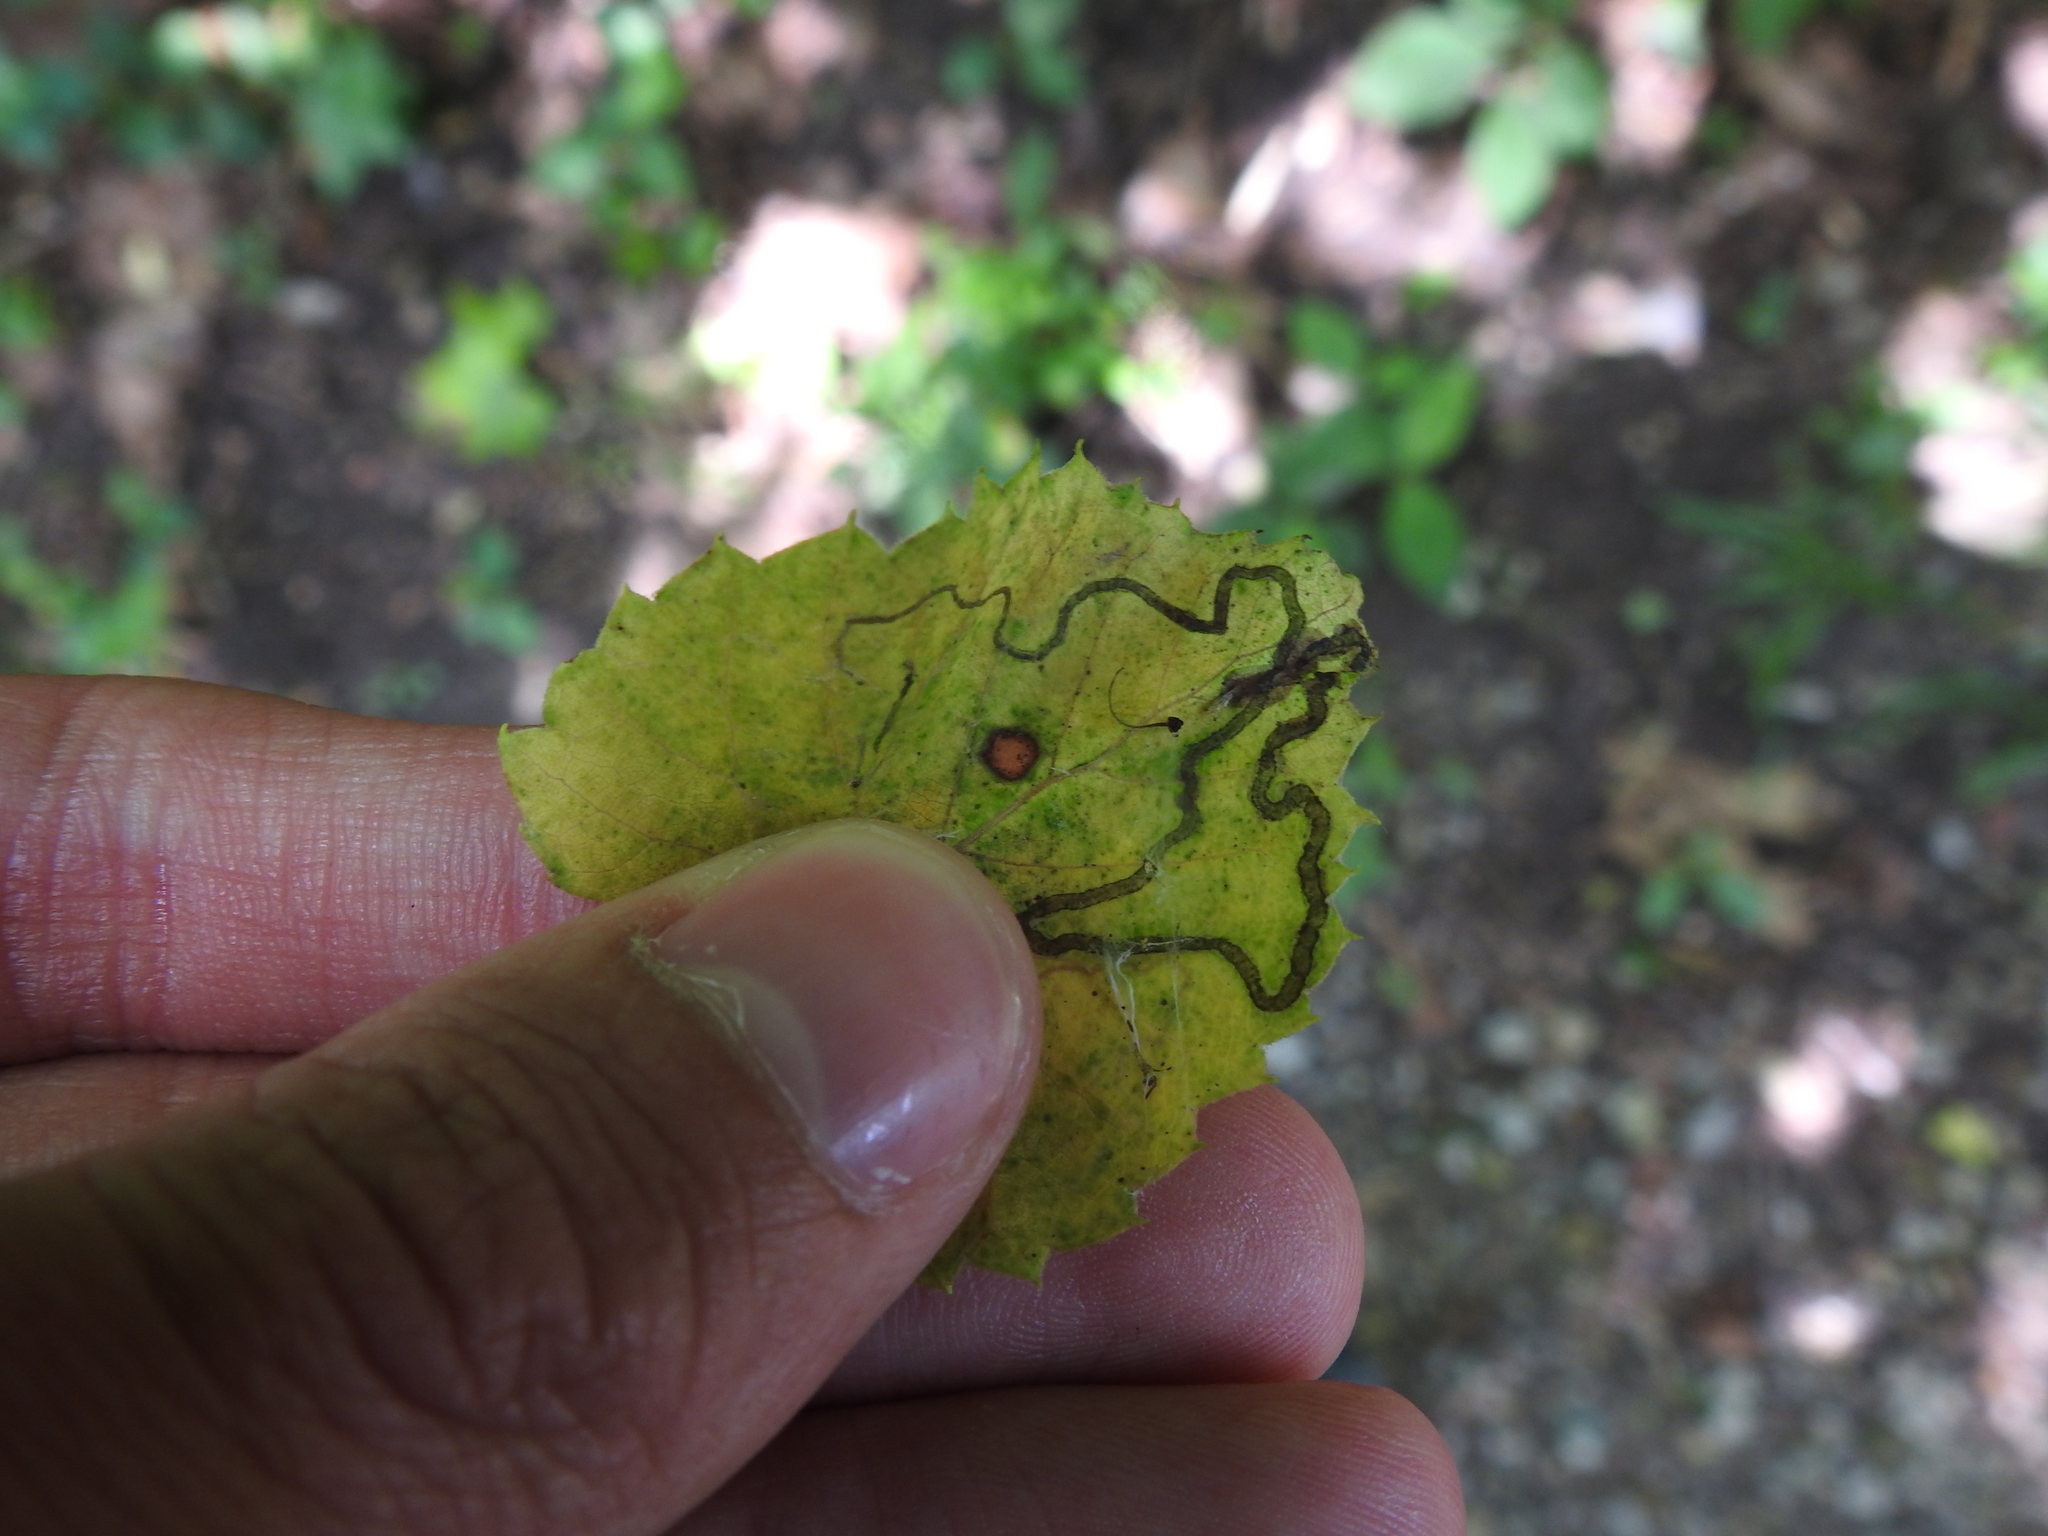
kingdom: Animalia
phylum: Arthropoda
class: Insecta
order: Lepidoptera
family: Gracillariidae
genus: Phyllocnistis
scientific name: Phyllocnistis vitifoliella
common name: Grape leaf-miner moth
